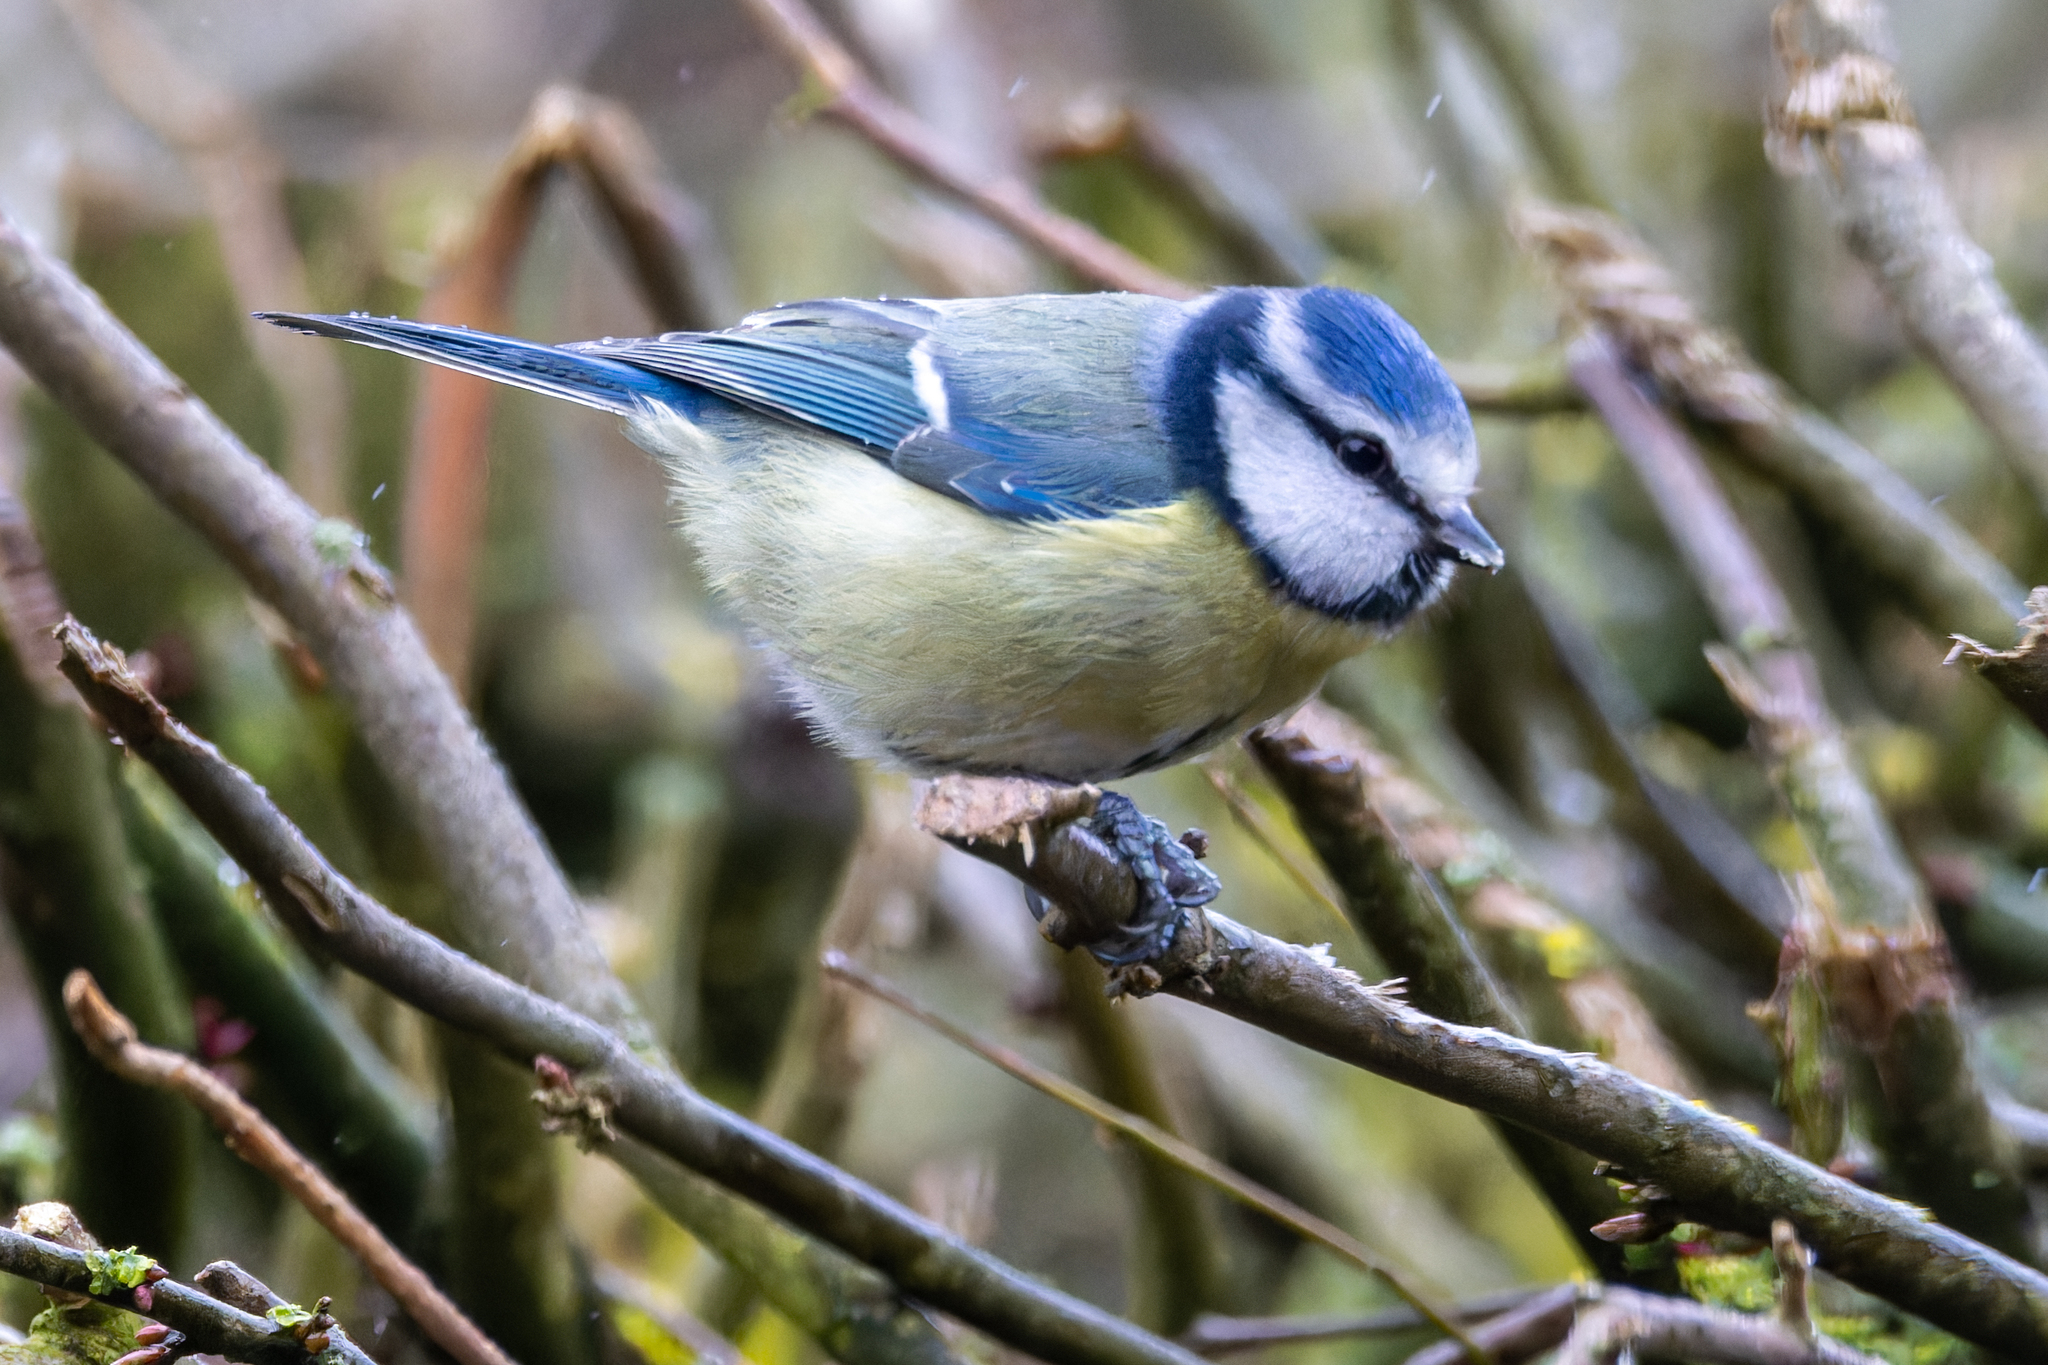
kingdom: Animalia
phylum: Chordata
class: Aves
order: Passeriformes
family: Paridae
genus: Cyanistes
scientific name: Cyanistes caeruleus
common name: Eurasian blue tit
